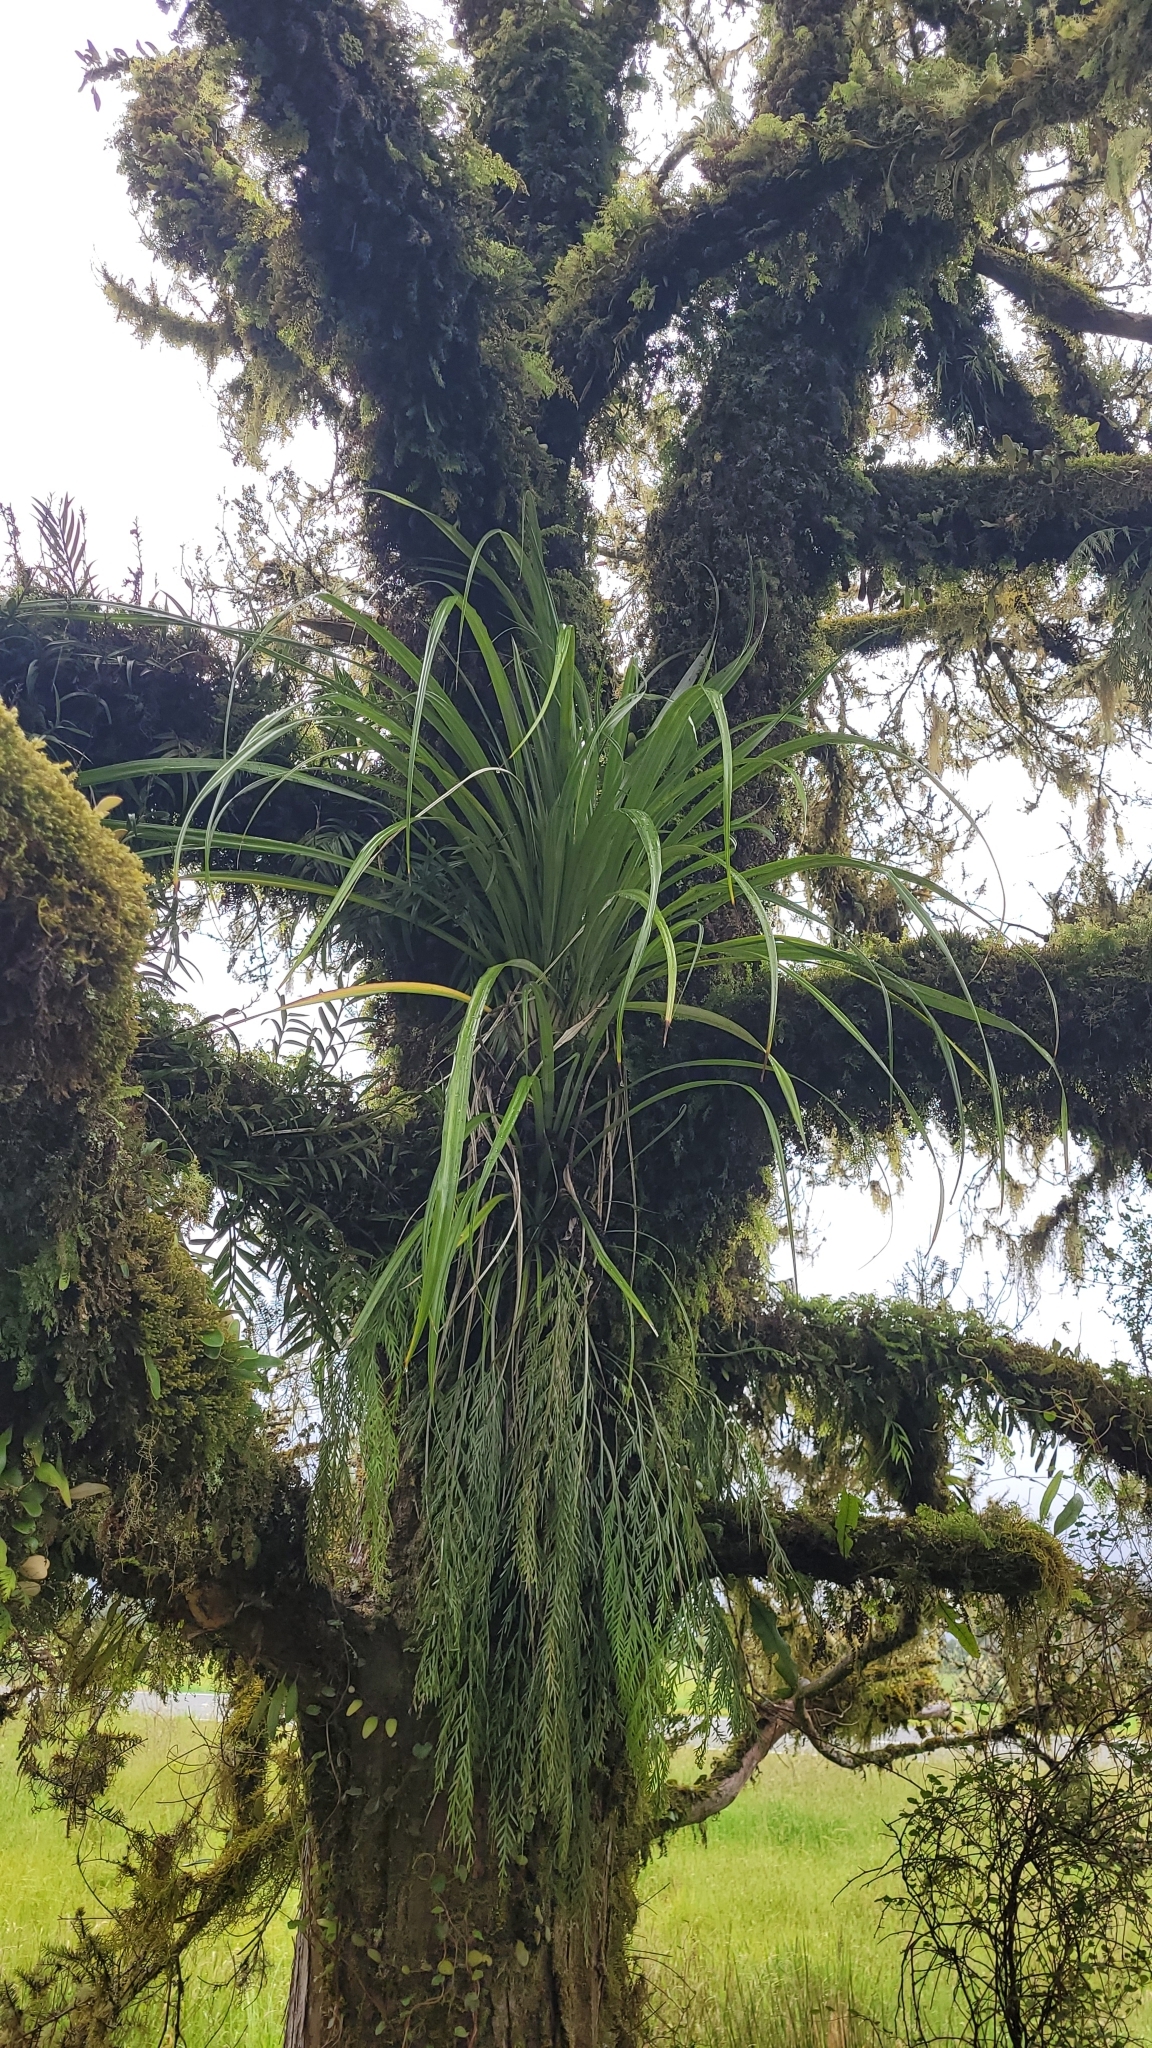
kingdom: Plantae
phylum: Tracheophyta
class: Liliopsida
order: Asparagales
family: Asteliaceae
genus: Astelia
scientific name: Astelia solandri
